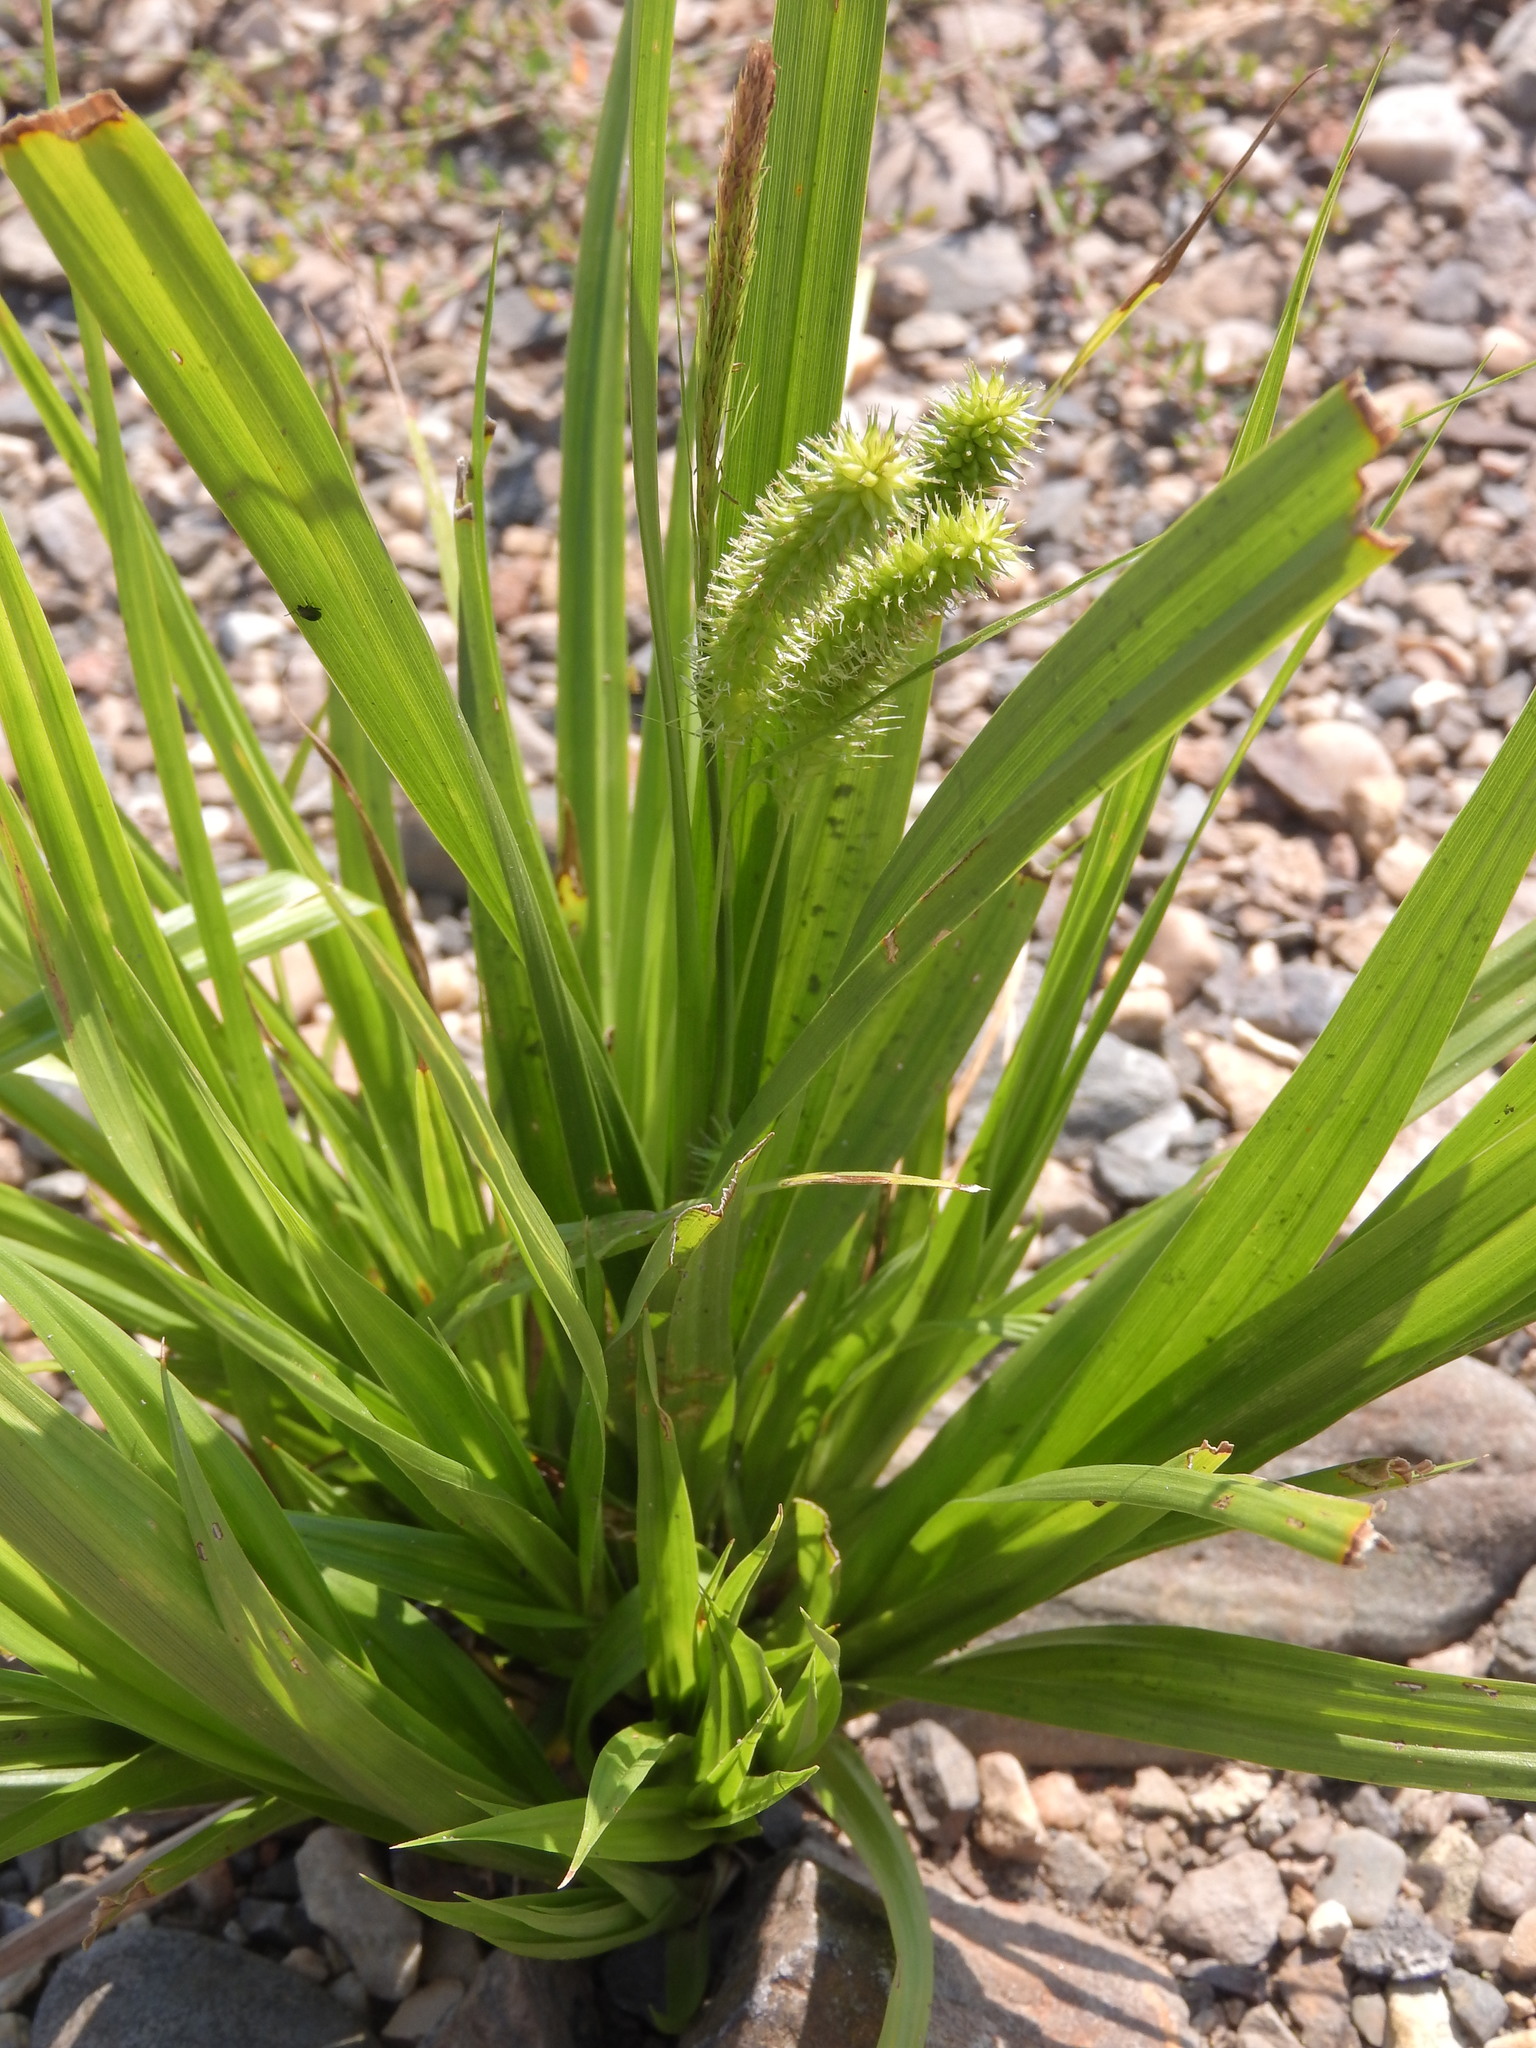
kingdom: Plantae
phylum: Tracheophyta
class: Liliopsida
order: Poales
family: Cyperaceae
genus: Carex
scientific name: Carex pseudocyperus
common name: Cyperus sedge
